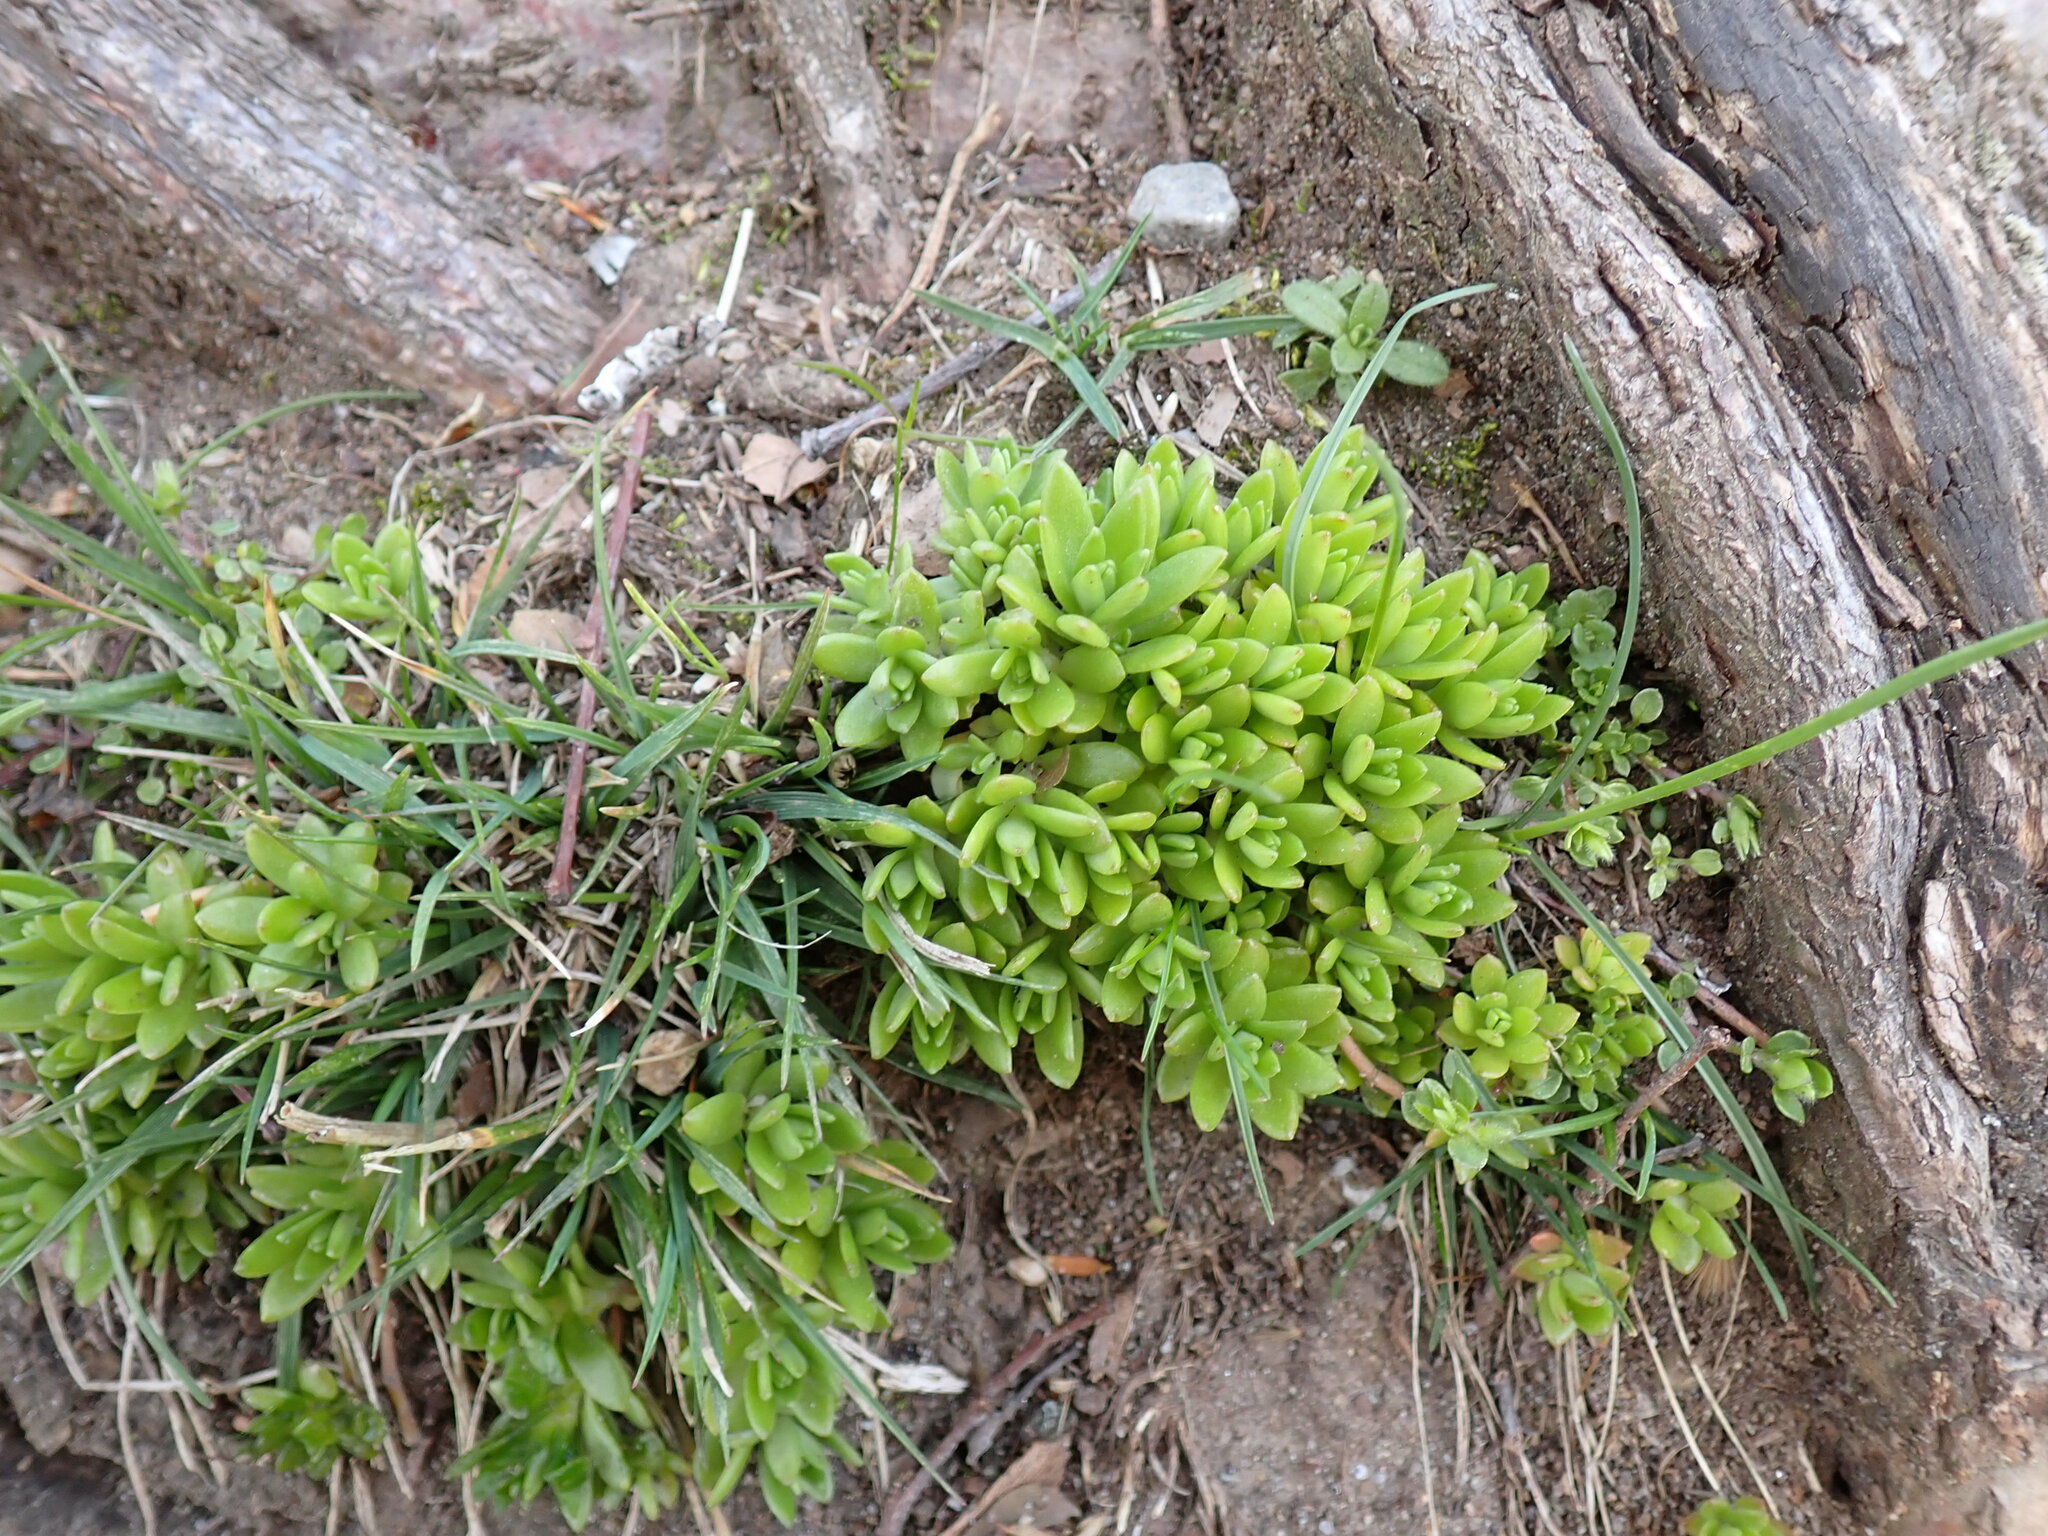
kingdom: Plantae
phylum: Tracheophyta
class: Magnoliopsida
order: Saxifragales
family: Crassulaceae
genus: Sedum
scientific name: Sedum sarmentosum
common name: Stringy stonecrop
